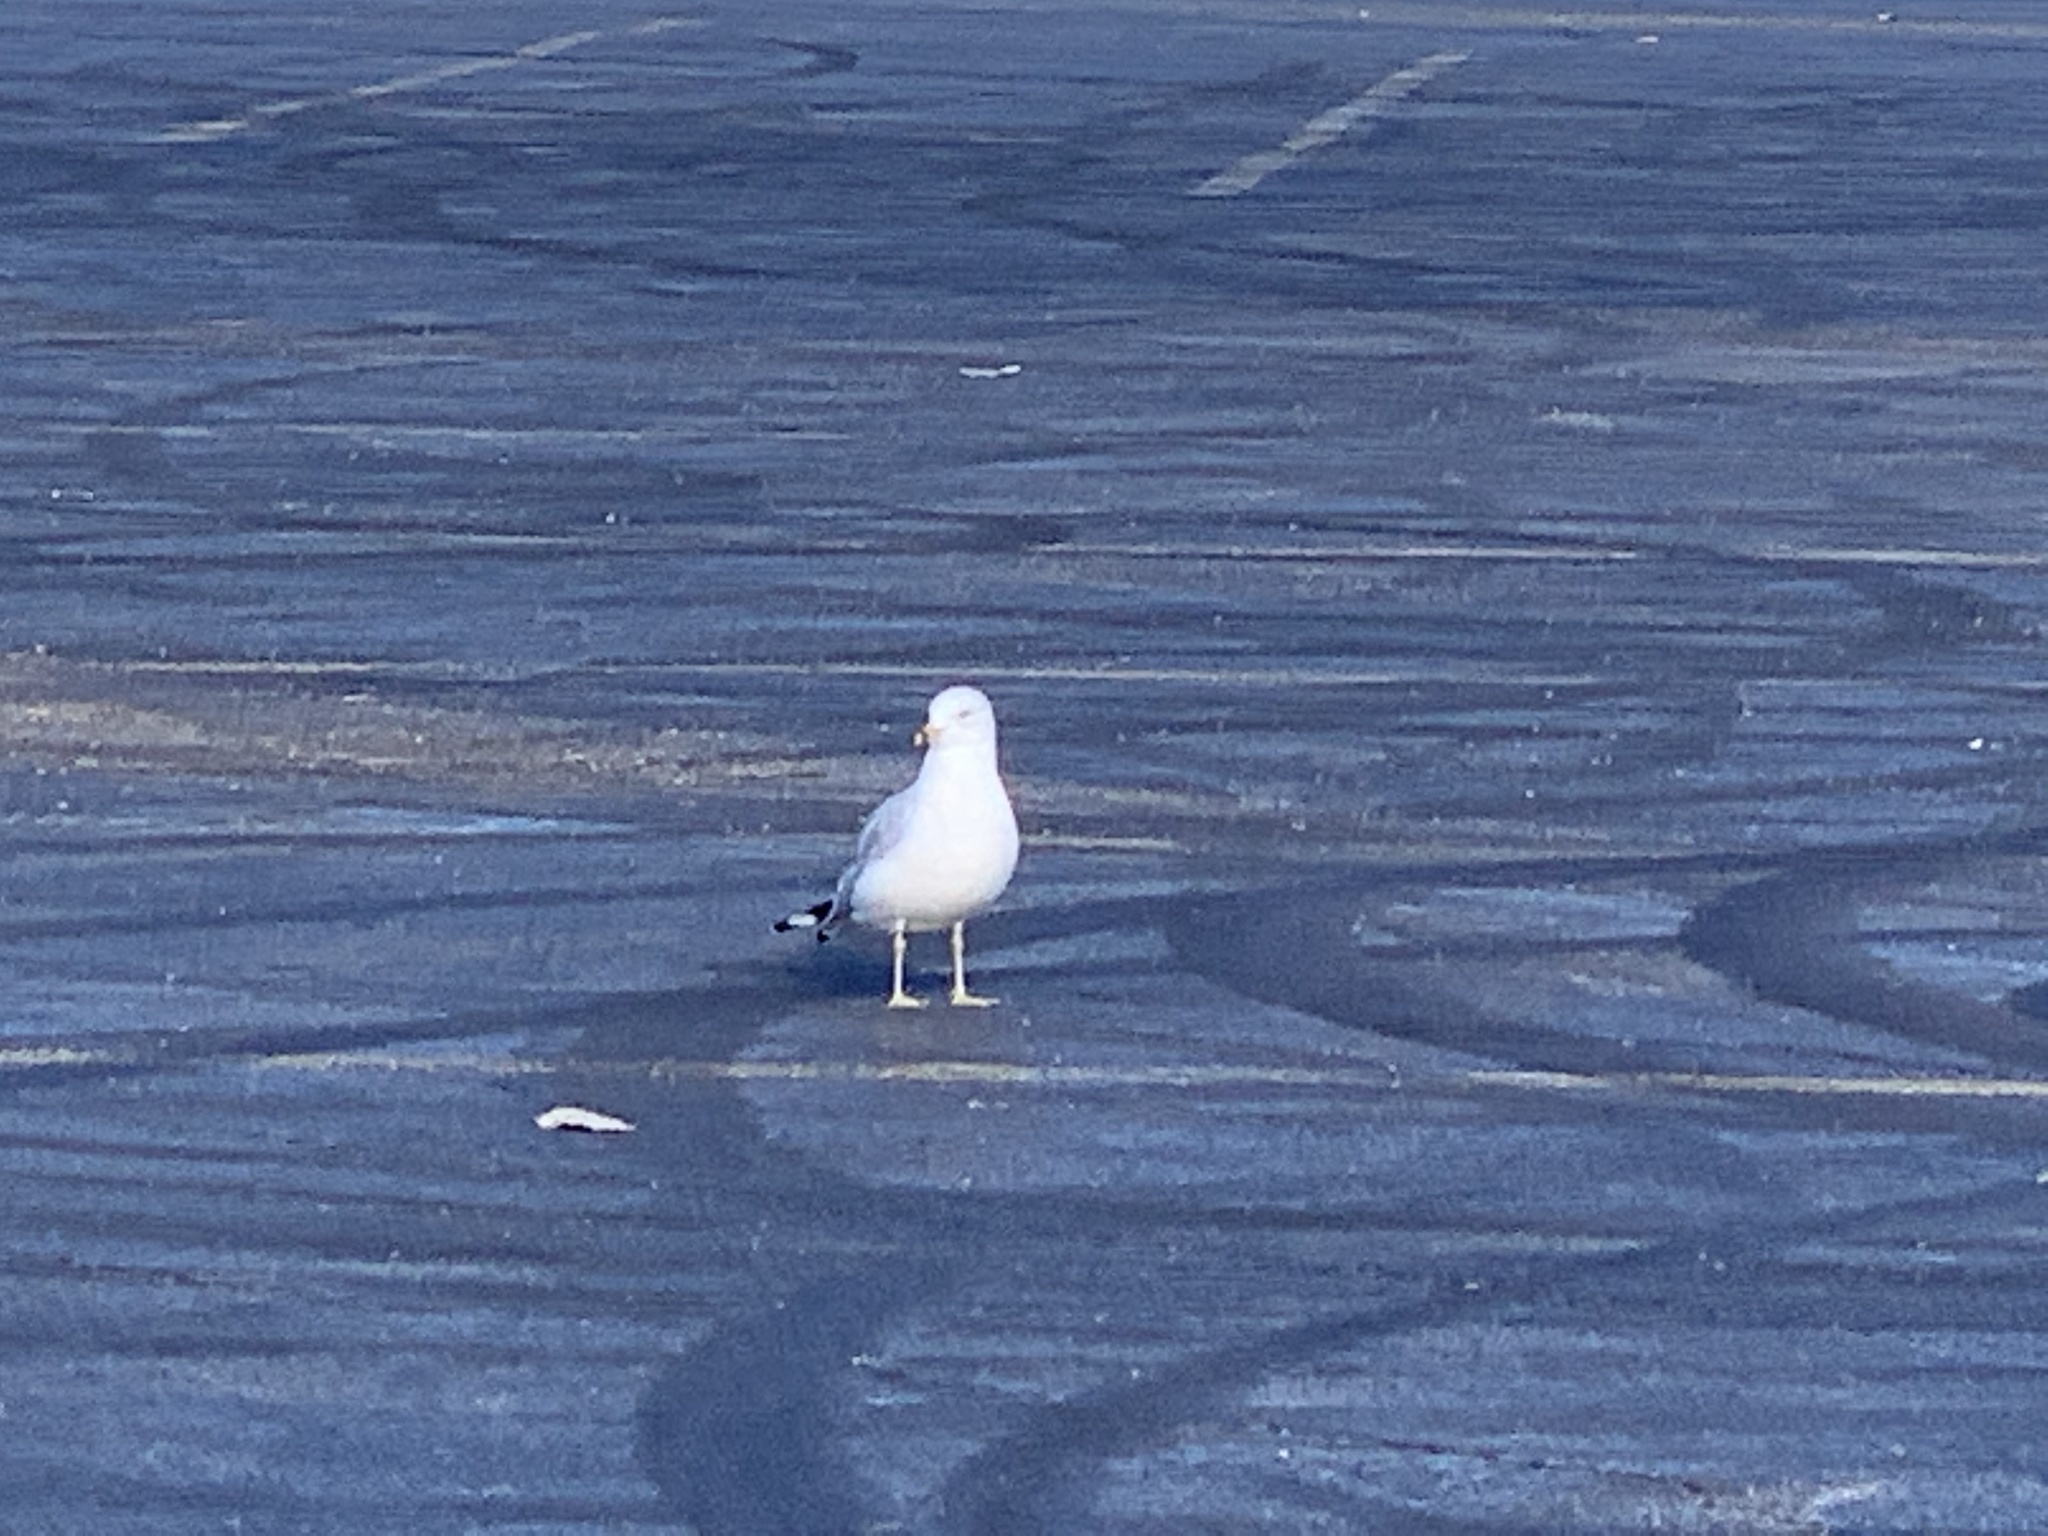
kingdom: Animalia
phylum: Chordata
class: Aves
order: Charadriiformes
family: Laridae
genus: Larus
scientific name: Larus delawarensis
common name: Ring-billed gull
